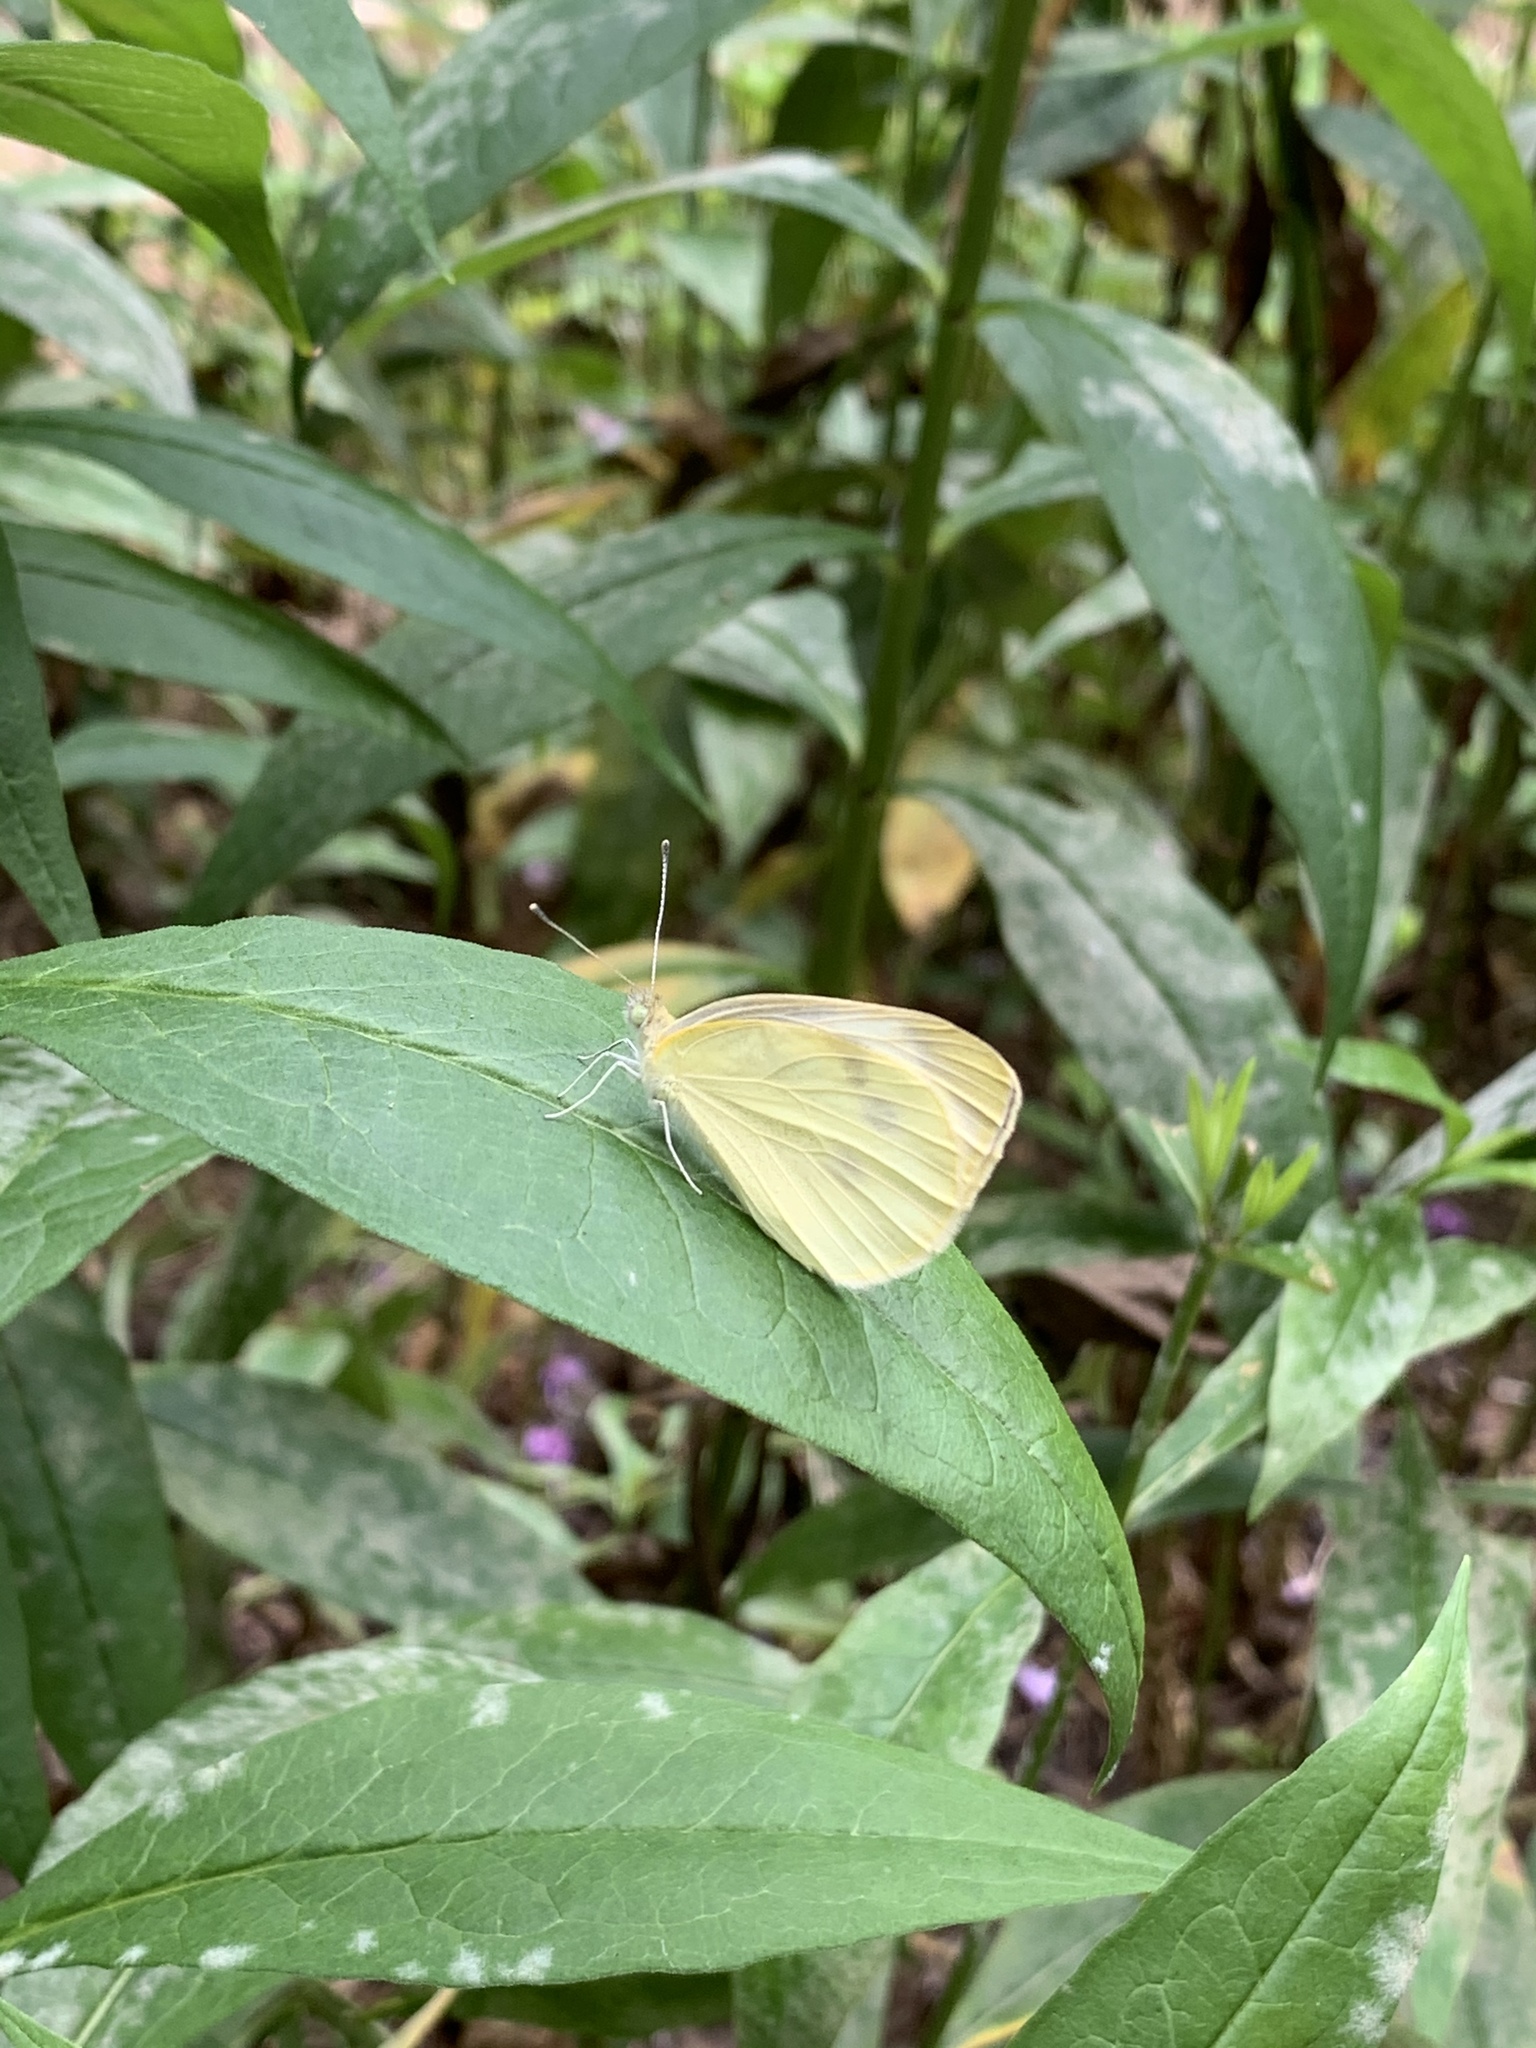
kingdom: Animalia
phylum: Arthropoda
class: Insecta
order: Lepidoptera
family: Pieridae
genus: Pieris
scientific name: Pieris rapae
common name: Small white
